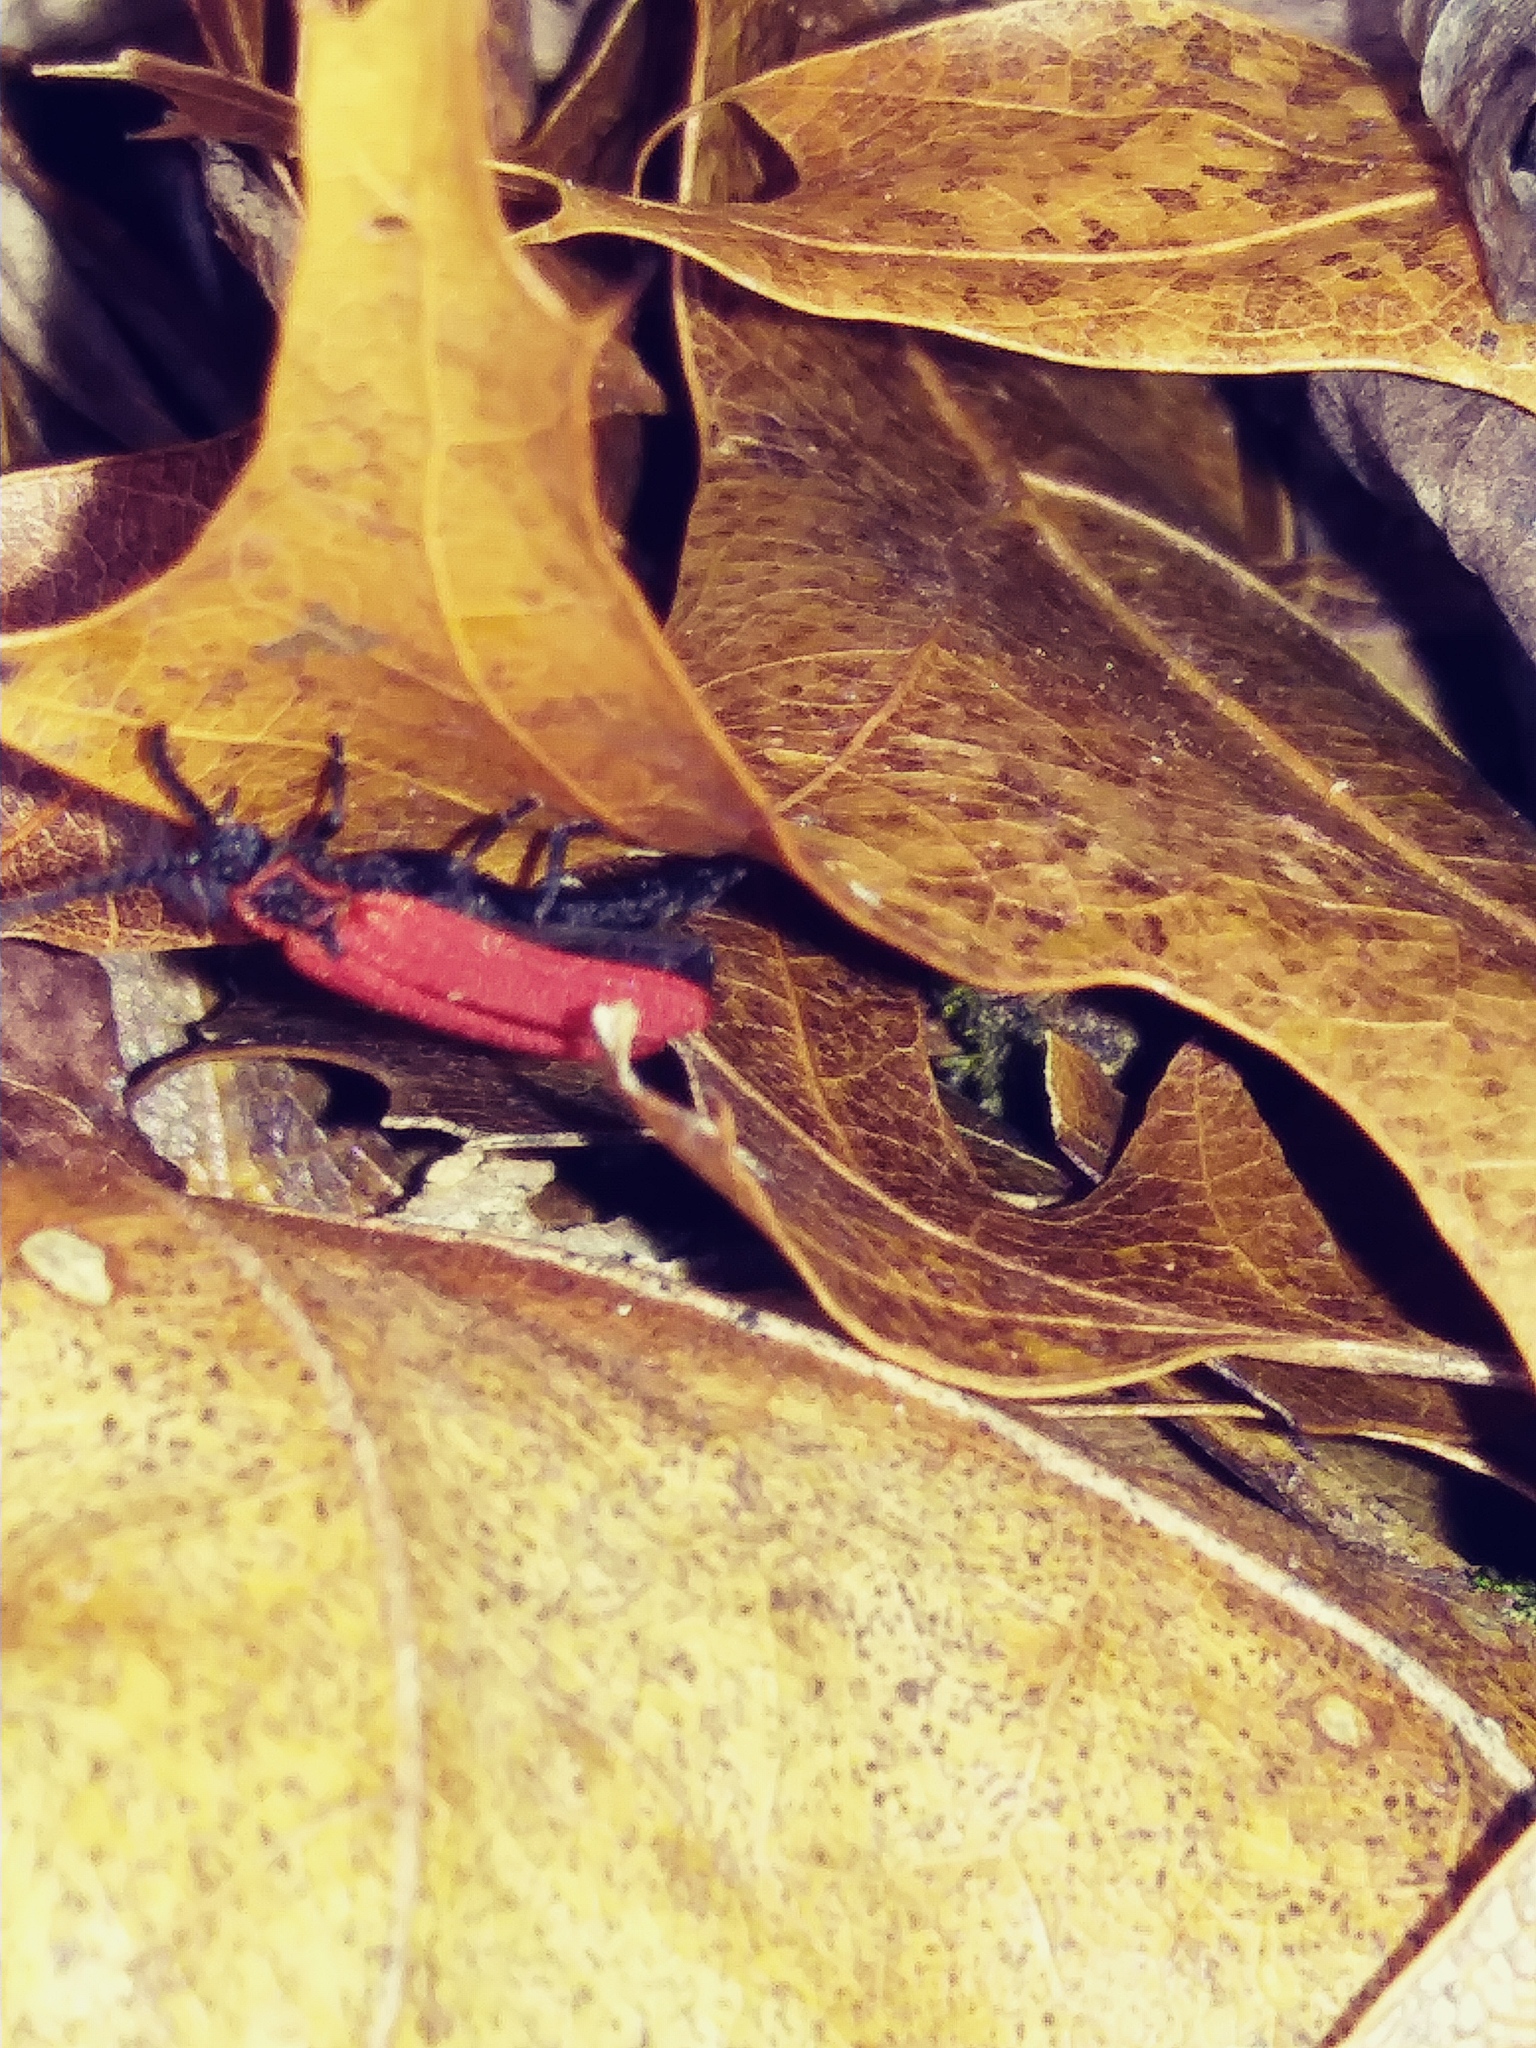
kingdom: Animalia
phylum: Arthropoda
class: Insecta
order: Coleoptera
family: Lycidae
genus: Dictyoptera
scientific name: Dictyoptera aurora
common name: Golden net-winged beetle
